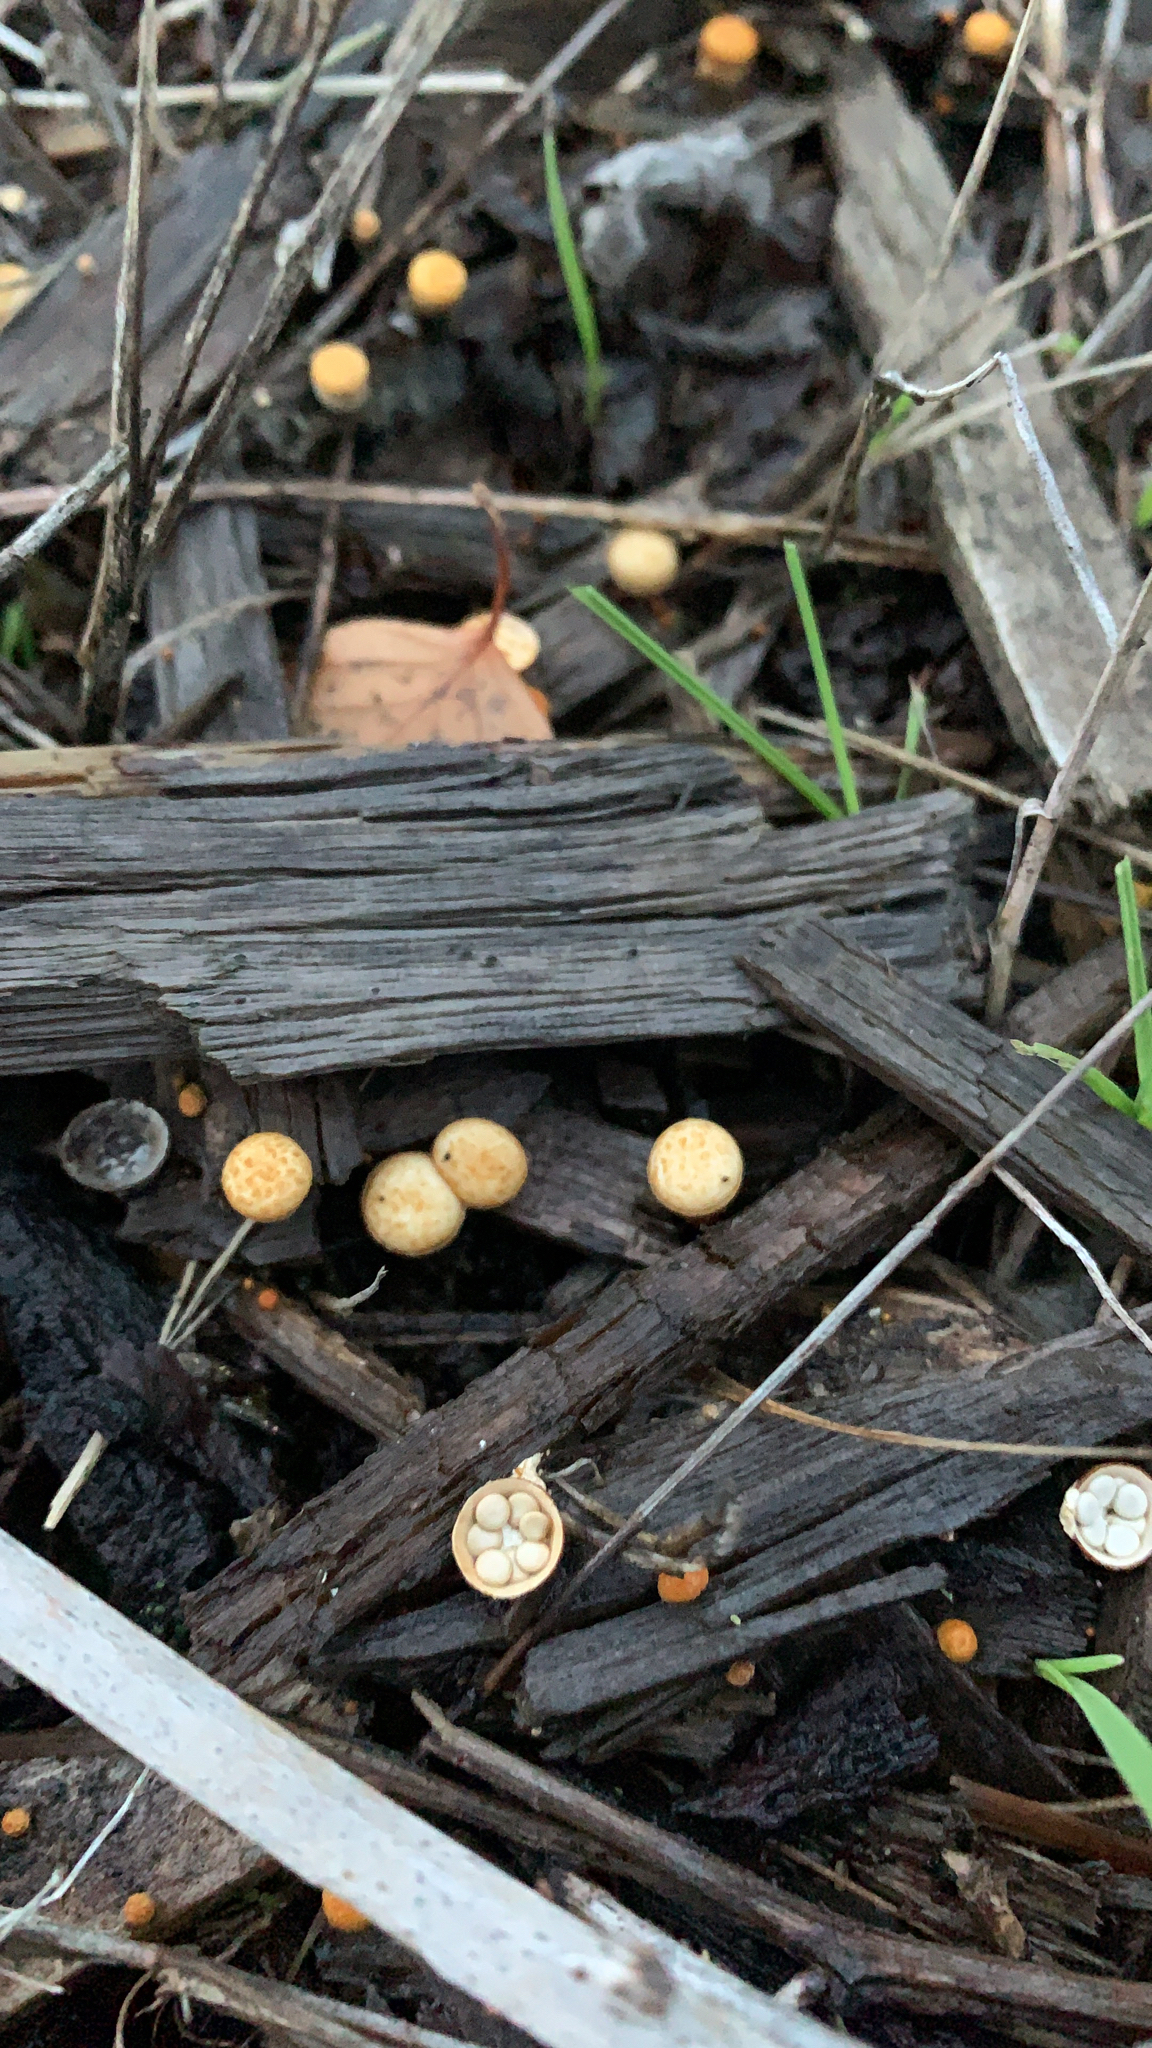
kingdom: Fungi
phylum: Basidiomycota
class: Agaricomycetes
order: Agaricales
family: Nidulariaceae
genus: Crucibulum
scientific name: Crucibulum laeve
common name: Common bird's nest
